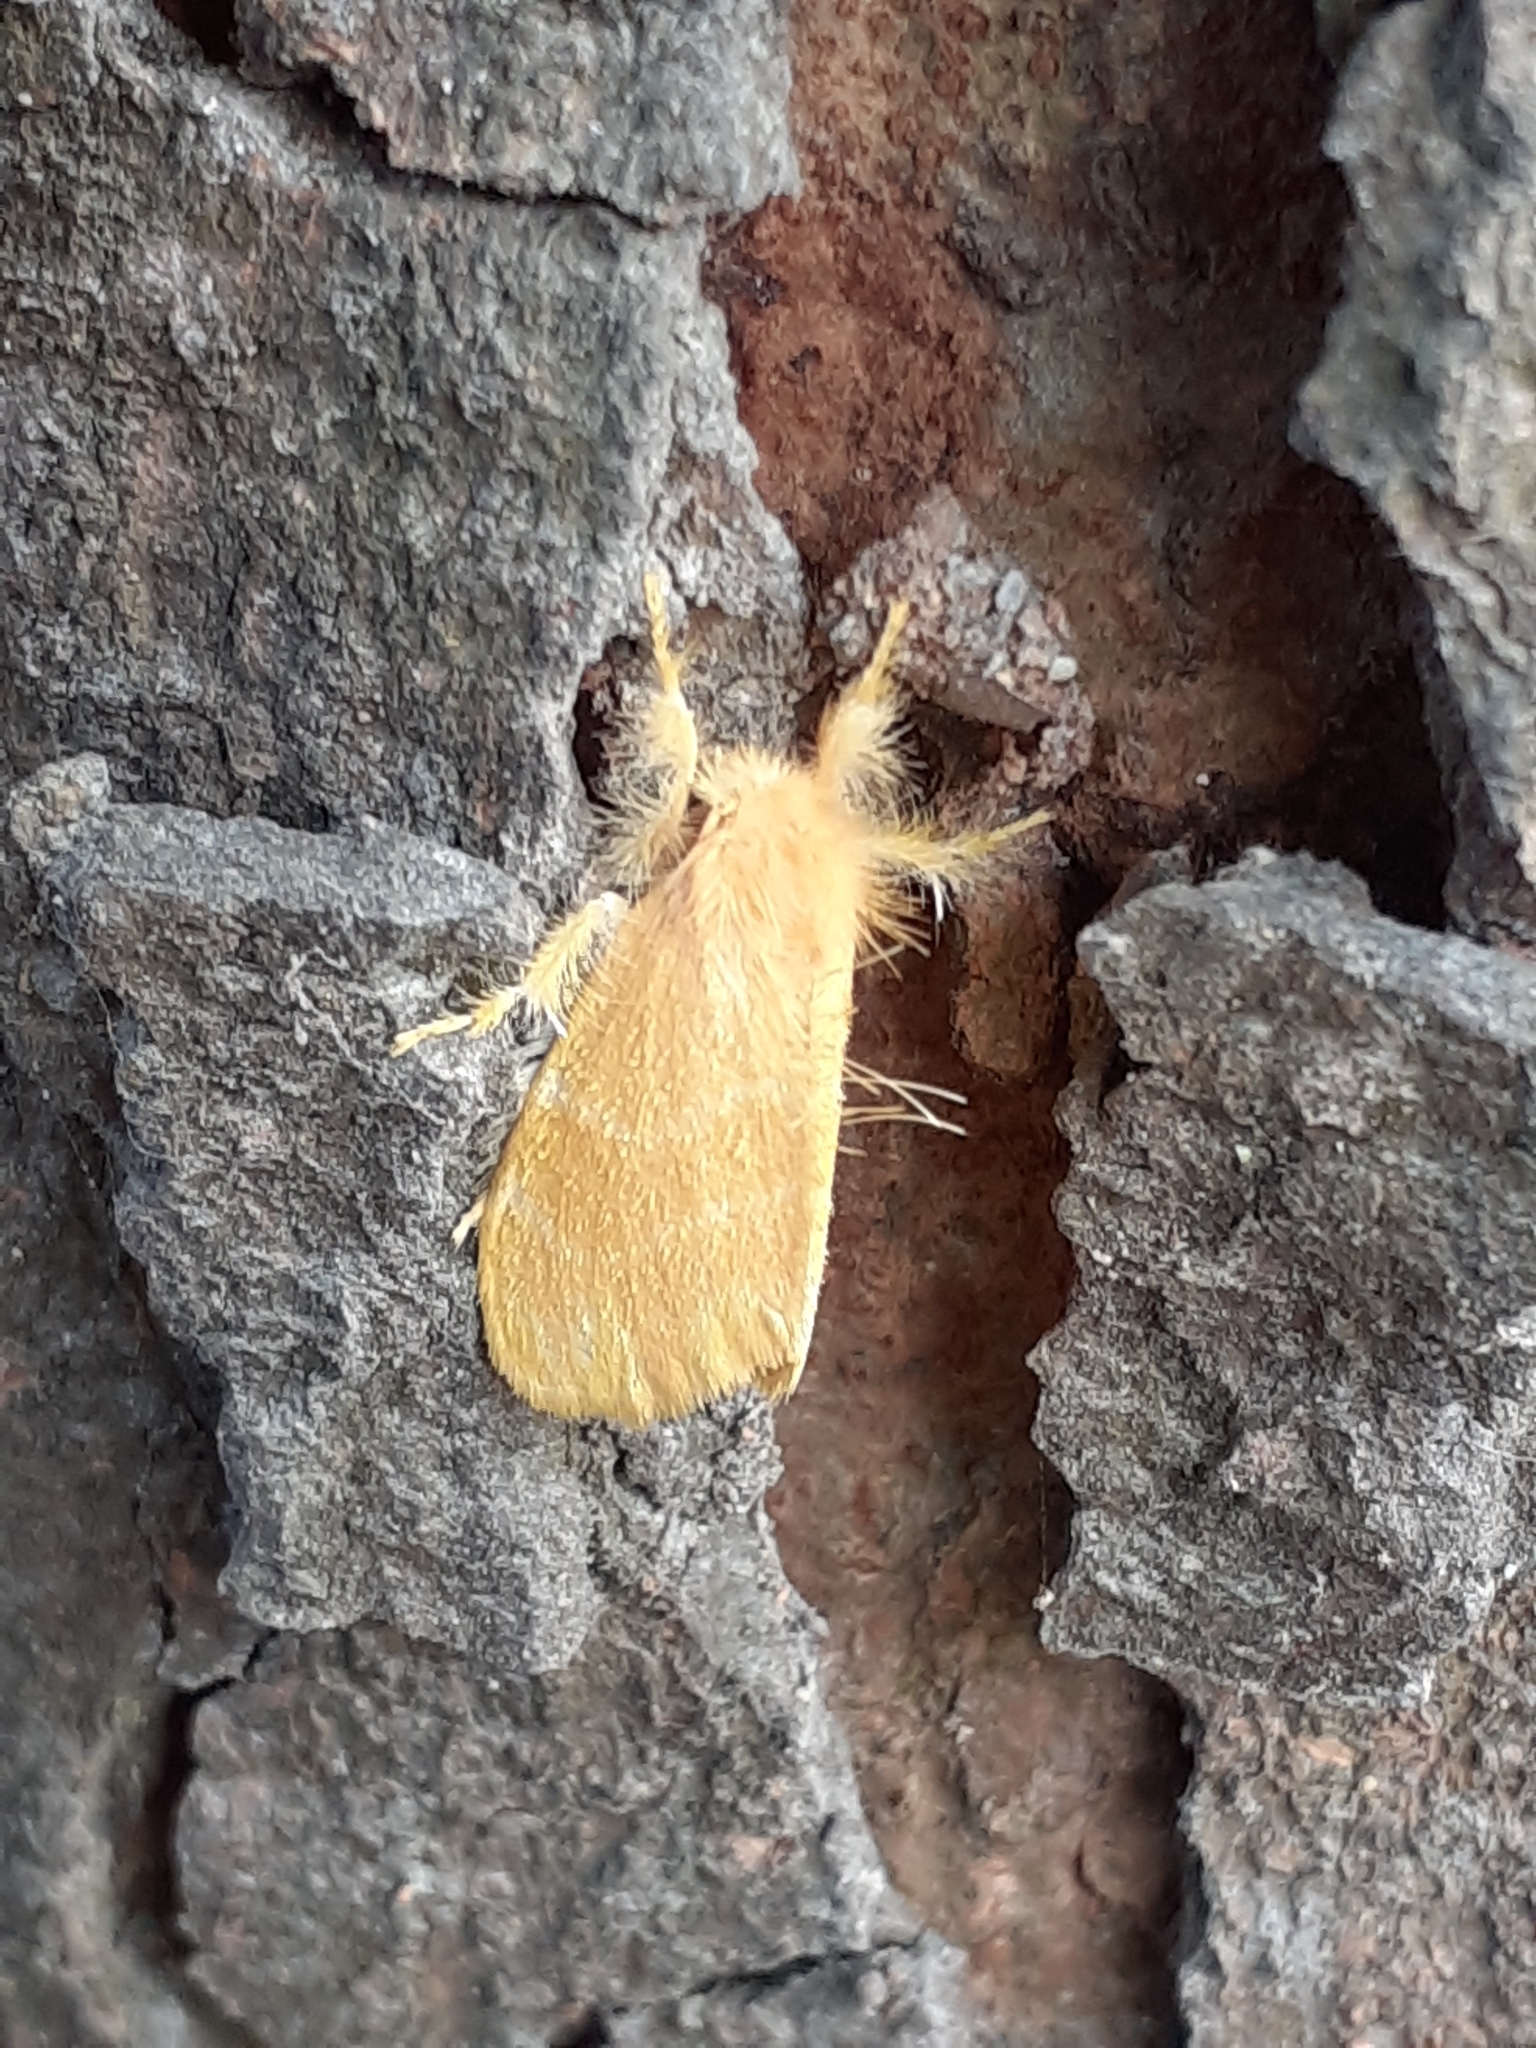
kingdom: Animalia
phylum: Arthropoda
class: Insecta
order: Lepidoptera
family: Erebidae
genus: Euproctis
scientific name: Euproctis taiwana
